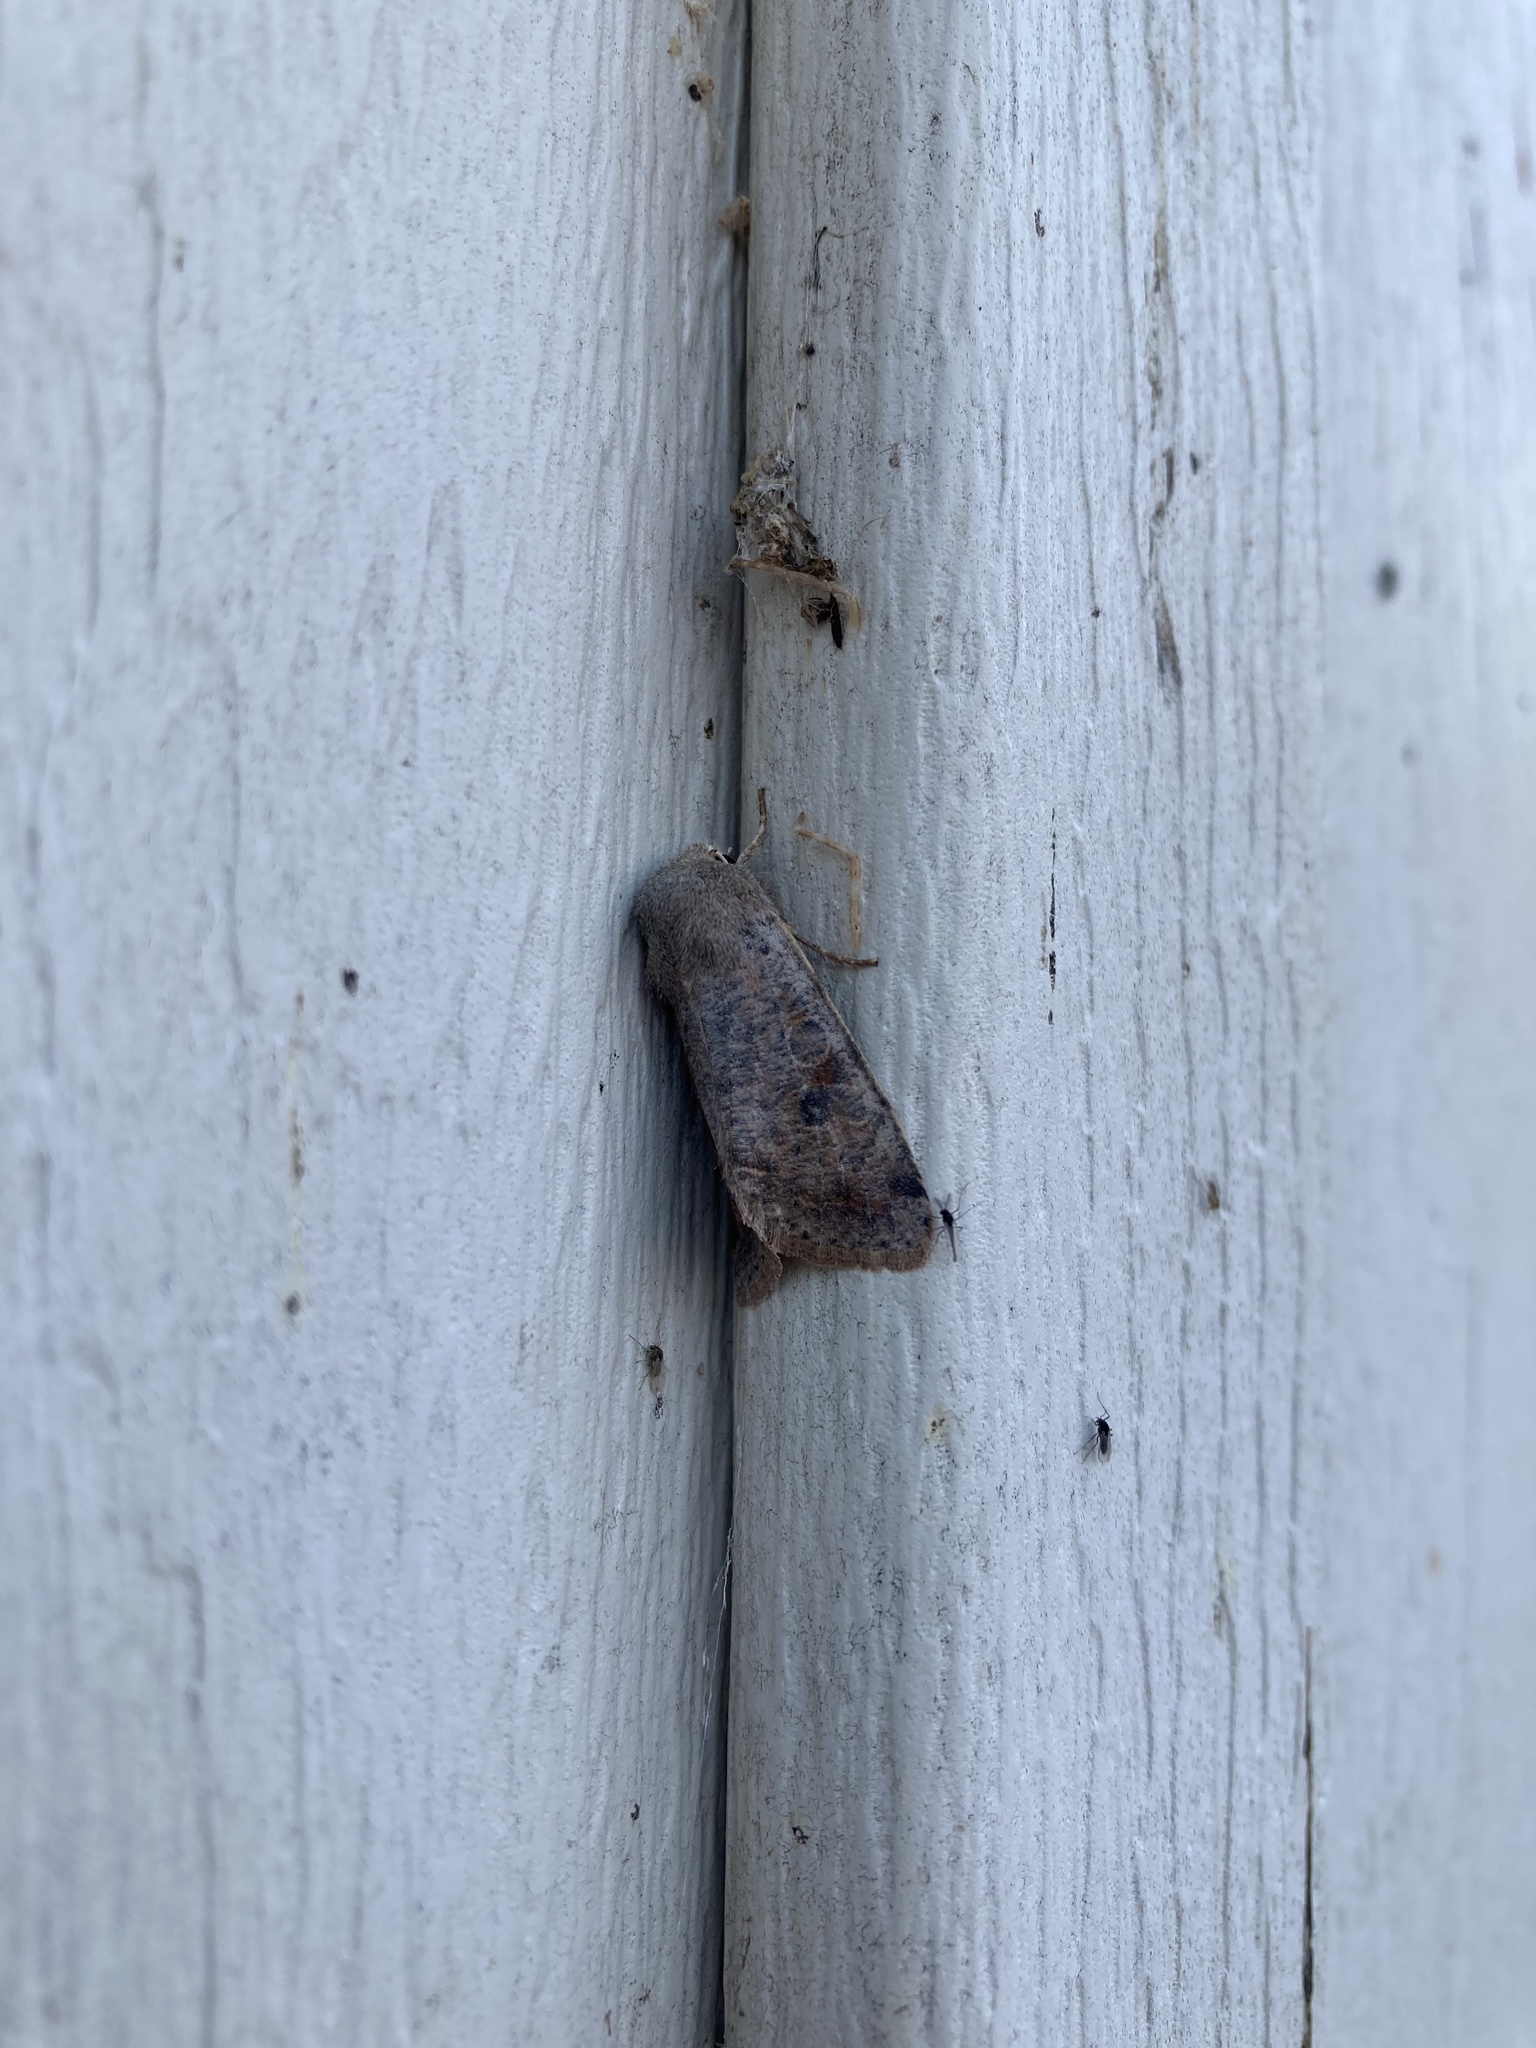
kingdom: Animalia
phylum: Arthropoda
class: Insecta
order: Lepidoptera
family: Noctuidae
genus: Orthosia
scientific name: Orthosia hibisci
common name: Green fruitworm
